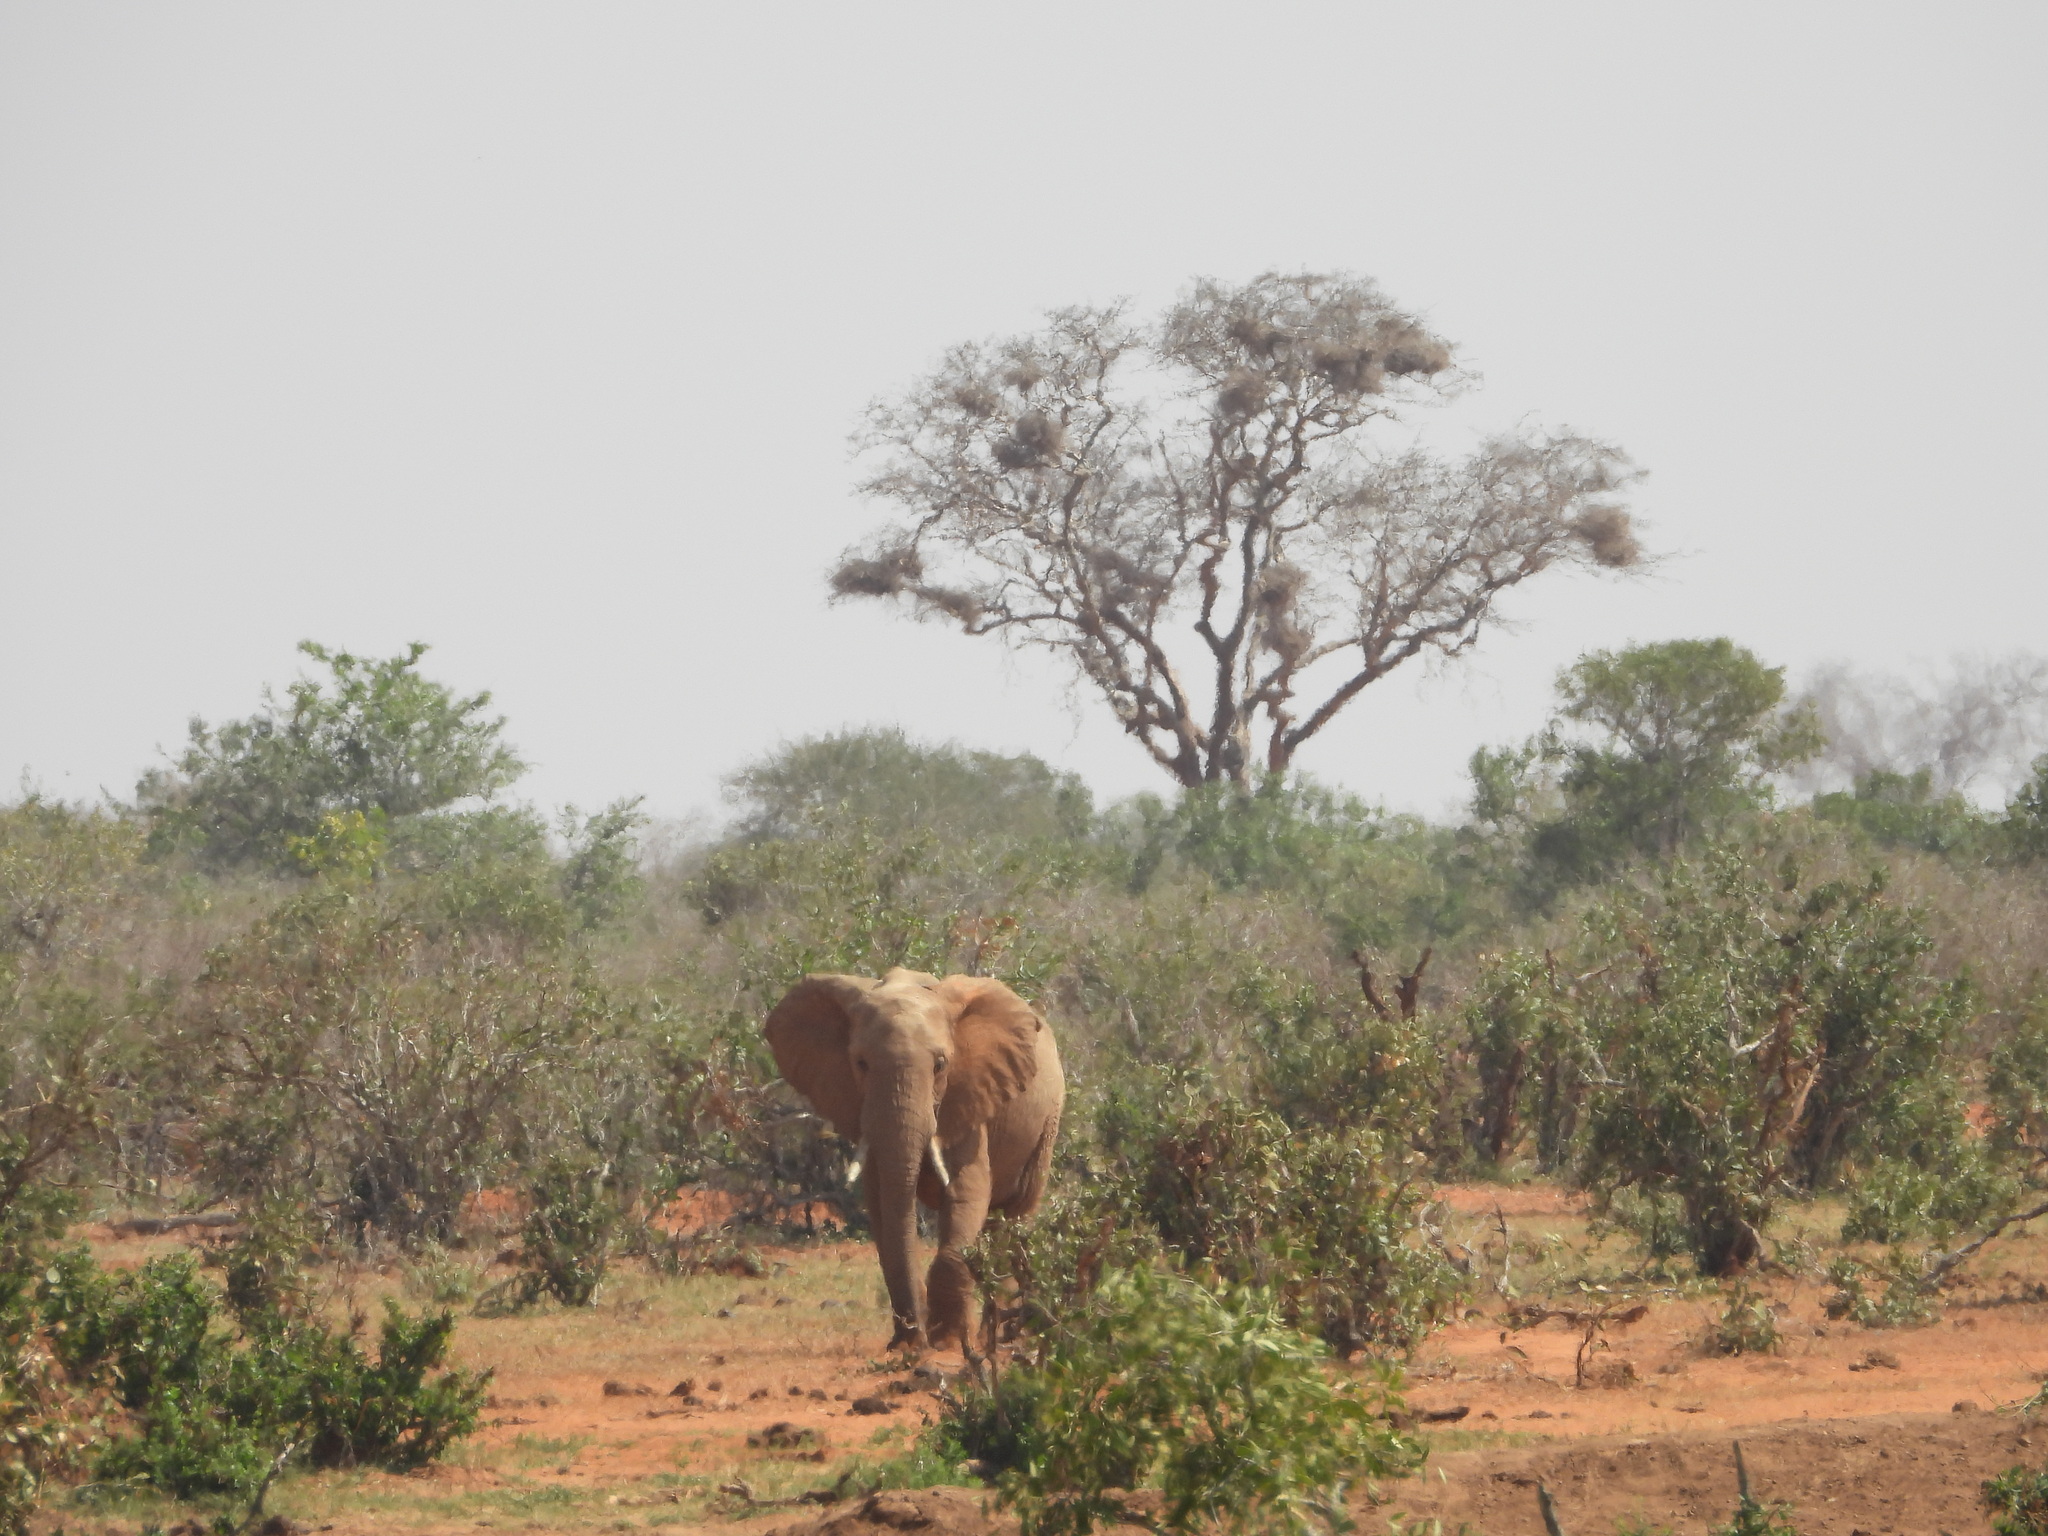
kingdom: Animalia
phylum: Chordata
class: Mammalia
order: Proboscidea
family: Elephantidae
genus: Loxodonta
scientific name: Loxodonta africana
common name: African elephant
